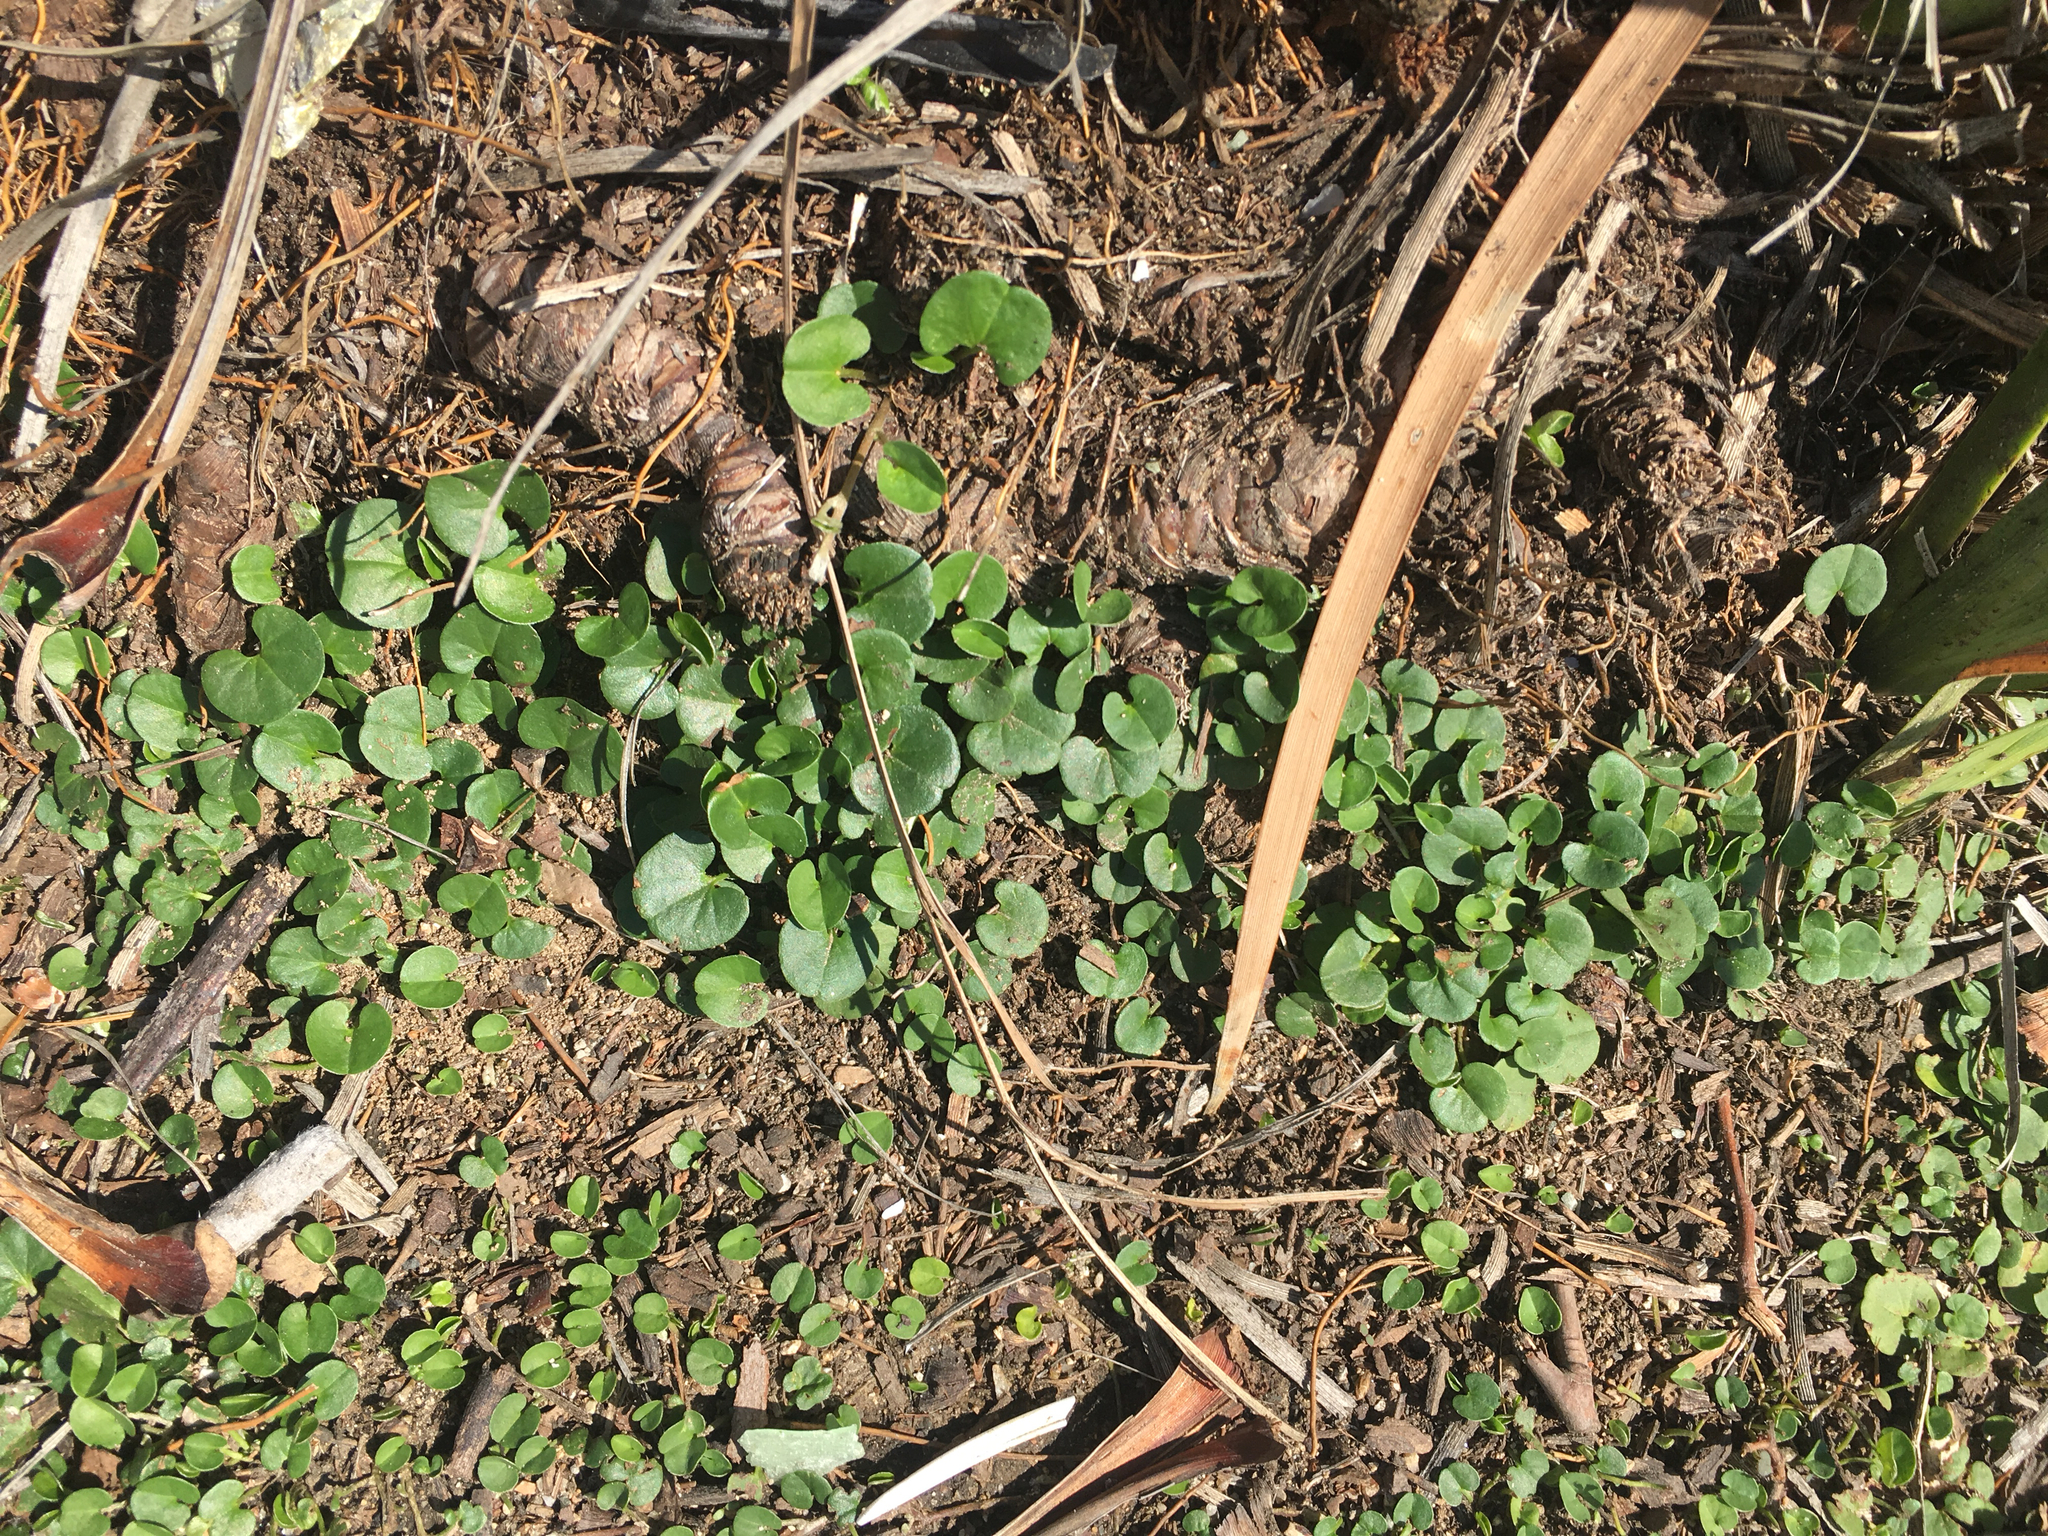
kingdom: Plantae
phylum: Tracheophyta
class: Magnoliopsida
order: Solanales
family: Convolvulaceae
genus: Dichondra
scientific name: Dichondra micrantha
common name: Kidneyweed
